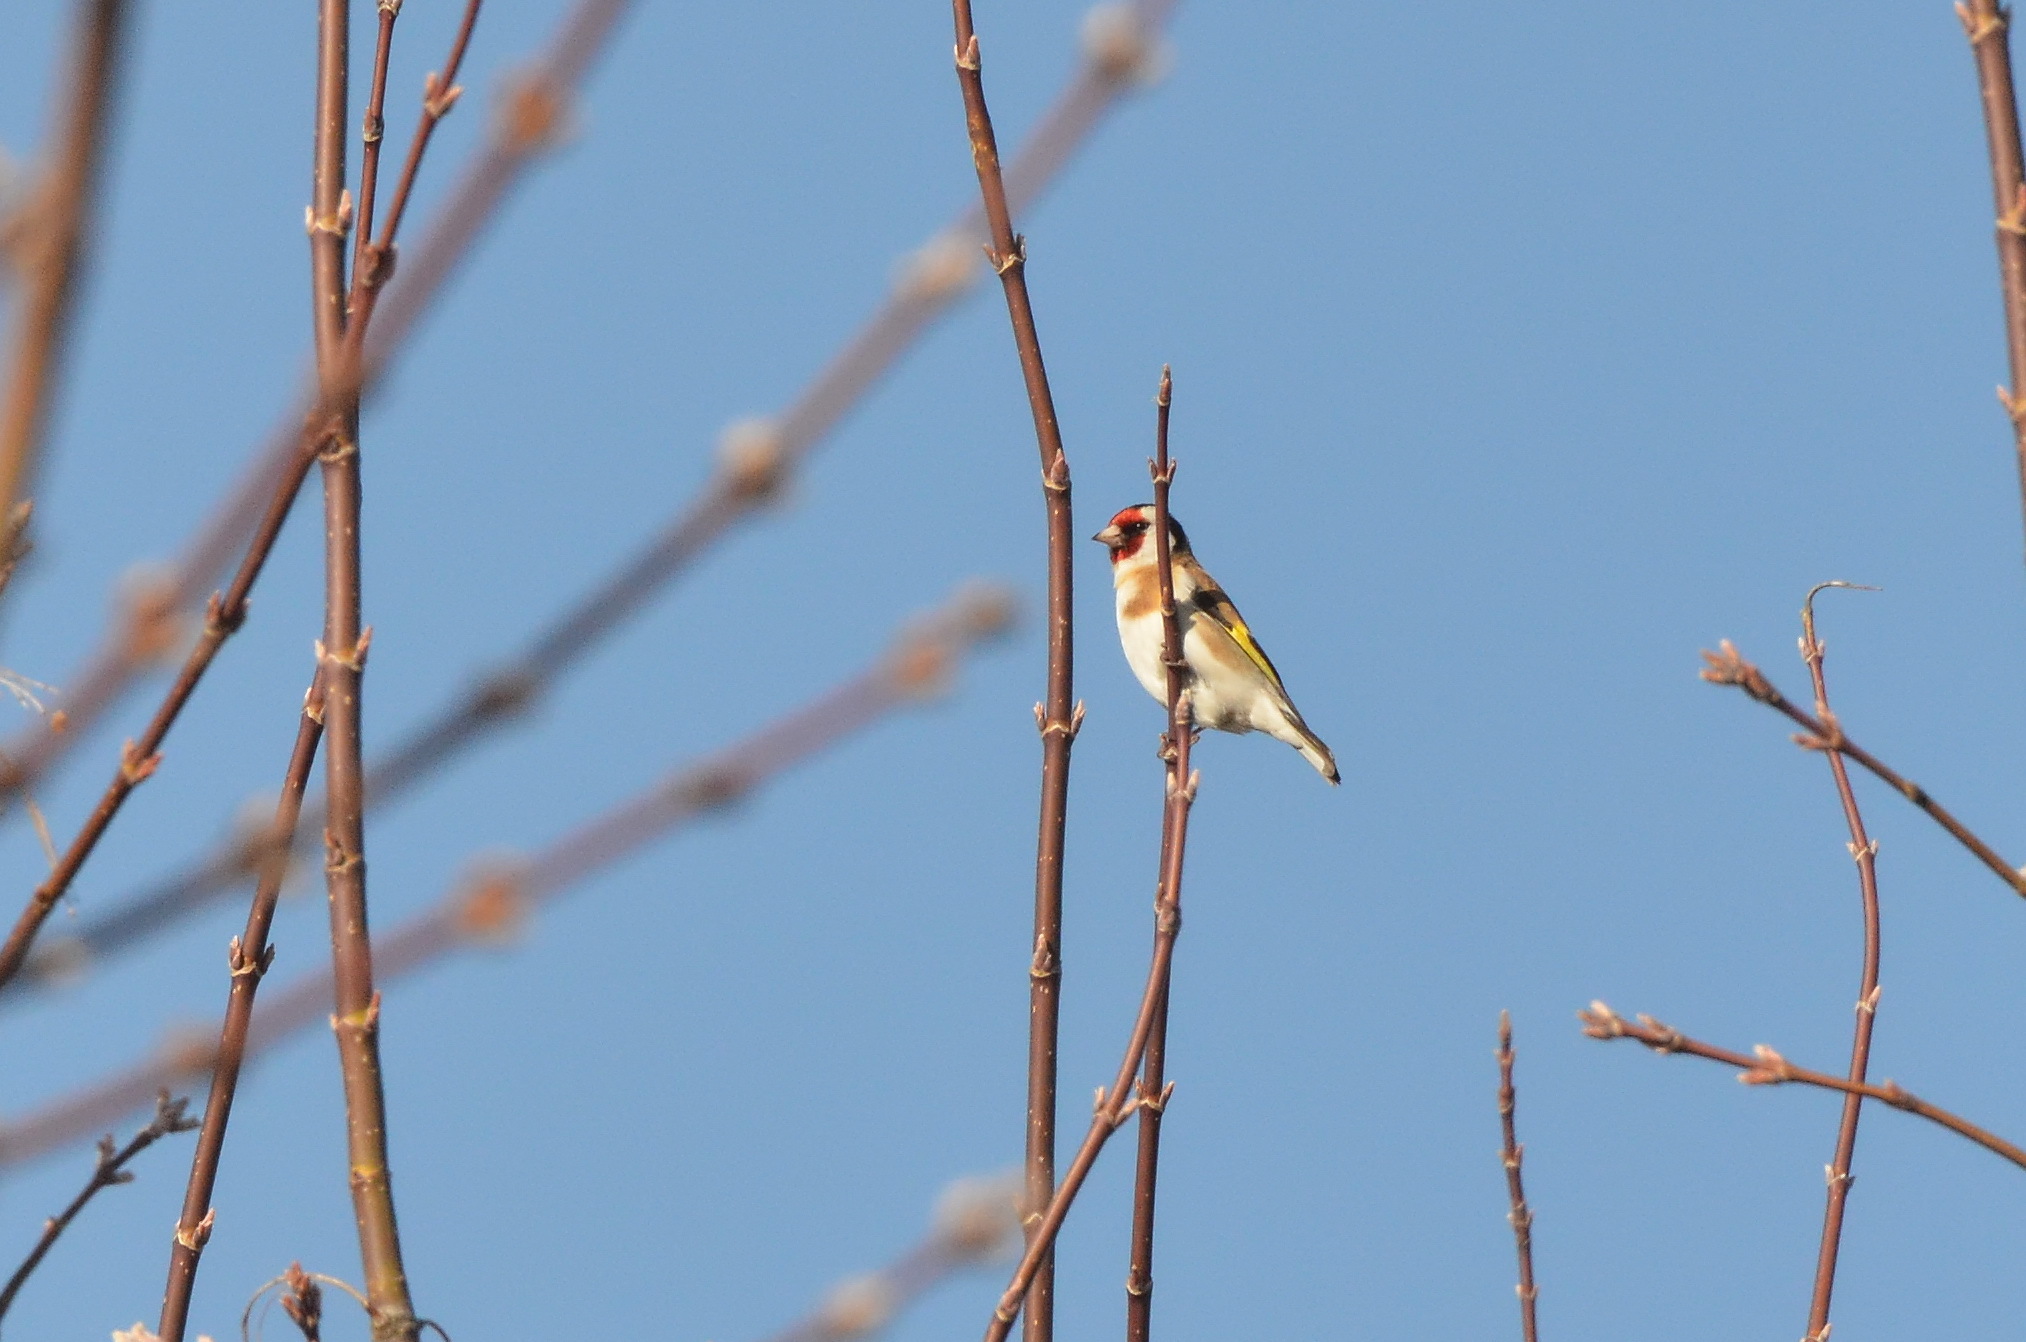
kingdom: Animalia
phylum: Chordata
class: Aves
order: Passeriformes
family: Fringillidae
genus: Carduelis
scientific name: Carduelis carduelis
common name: European goldfinch
